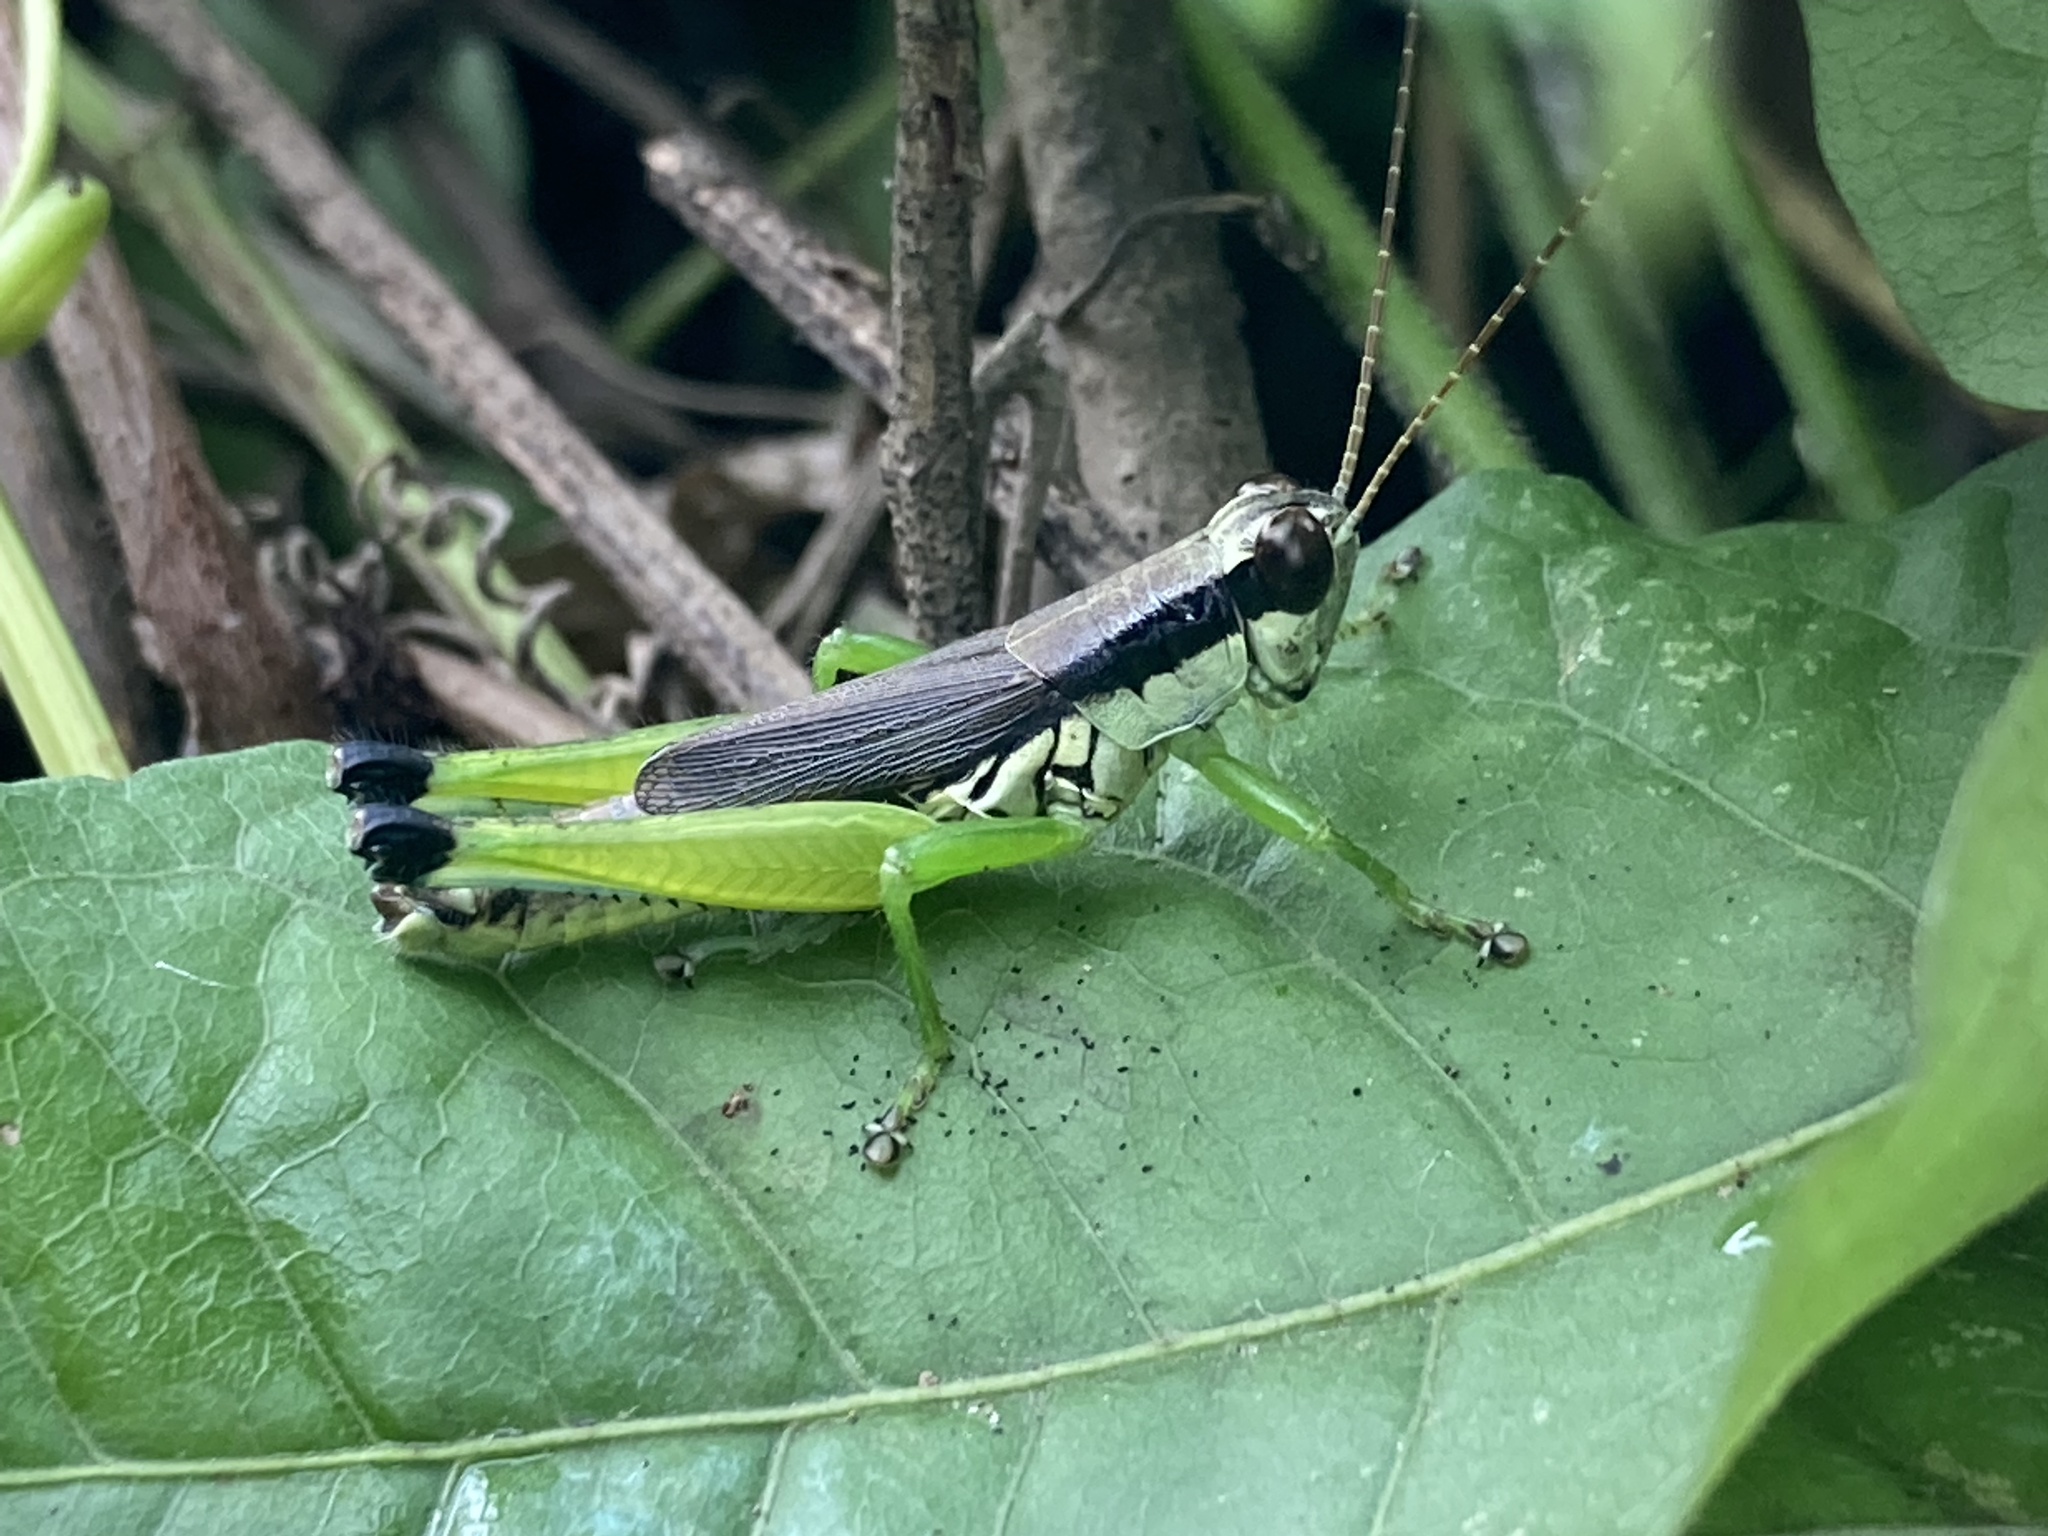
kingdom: Animalia
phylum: Arthropoda
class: Insecta
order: Orthoptera
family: Acrididae
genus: Paroxya
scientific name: Paroxya clavuligera
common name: Olive-green swamp grasshopper
